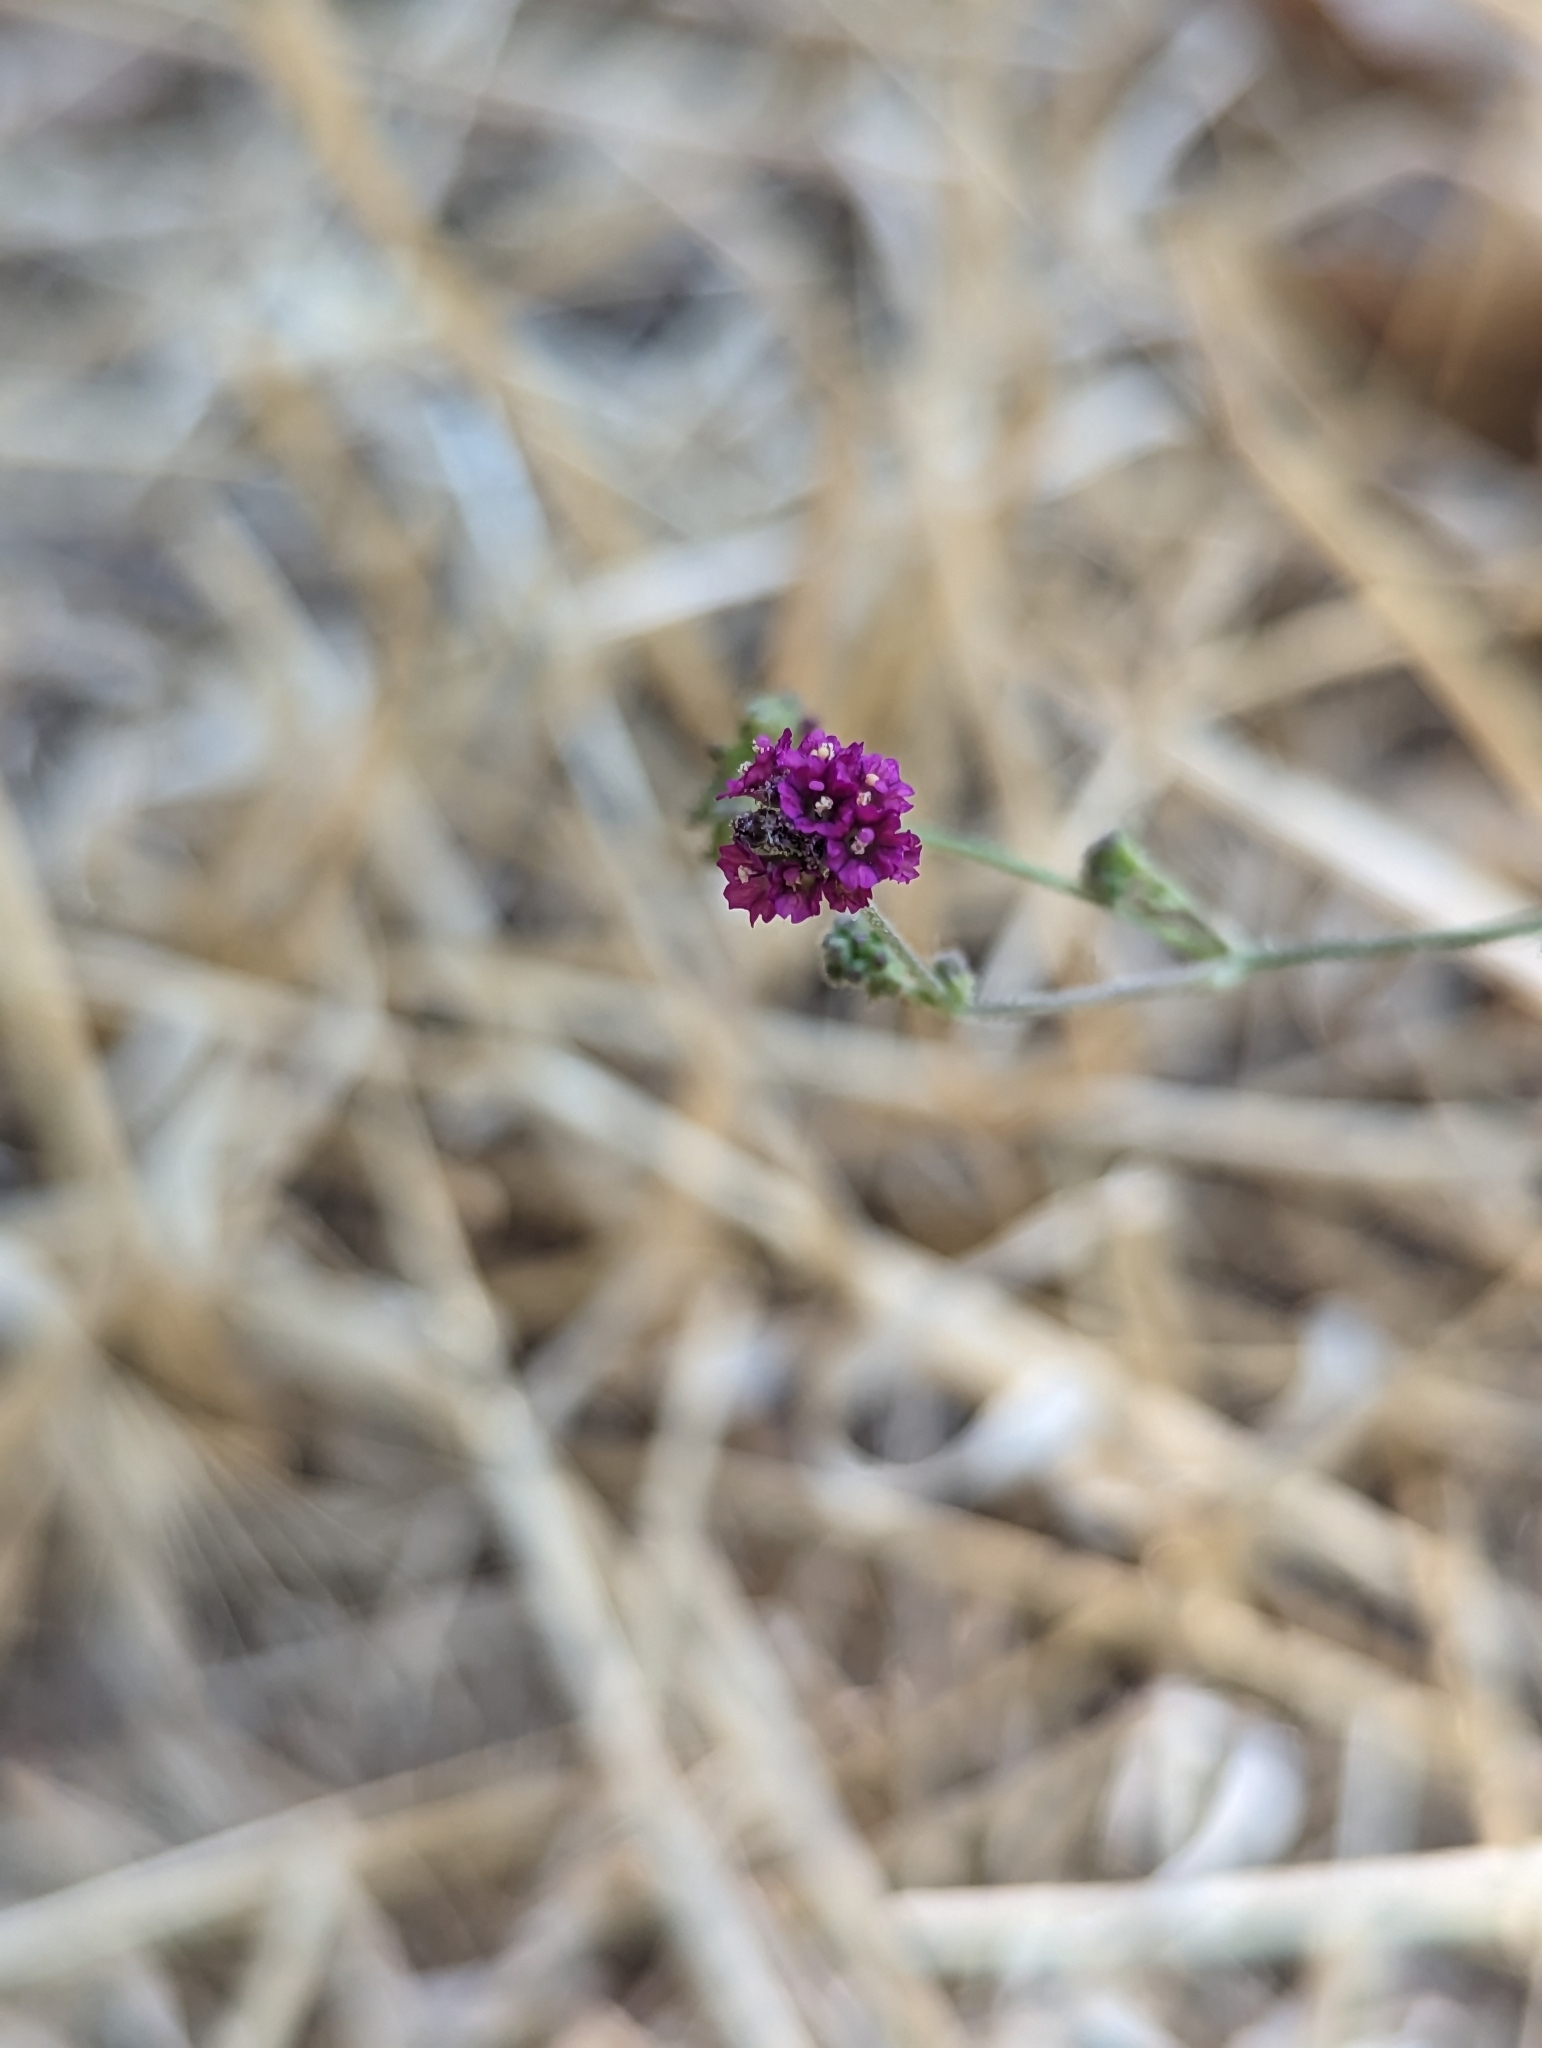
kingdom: Plantae
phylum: Tracheophyta
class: Magnoliopsida
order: Caryophyllales
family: Nyctaginaceae
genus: Boerhavia
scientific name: Boerhavia coccinea
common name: Scarlet spiderling
